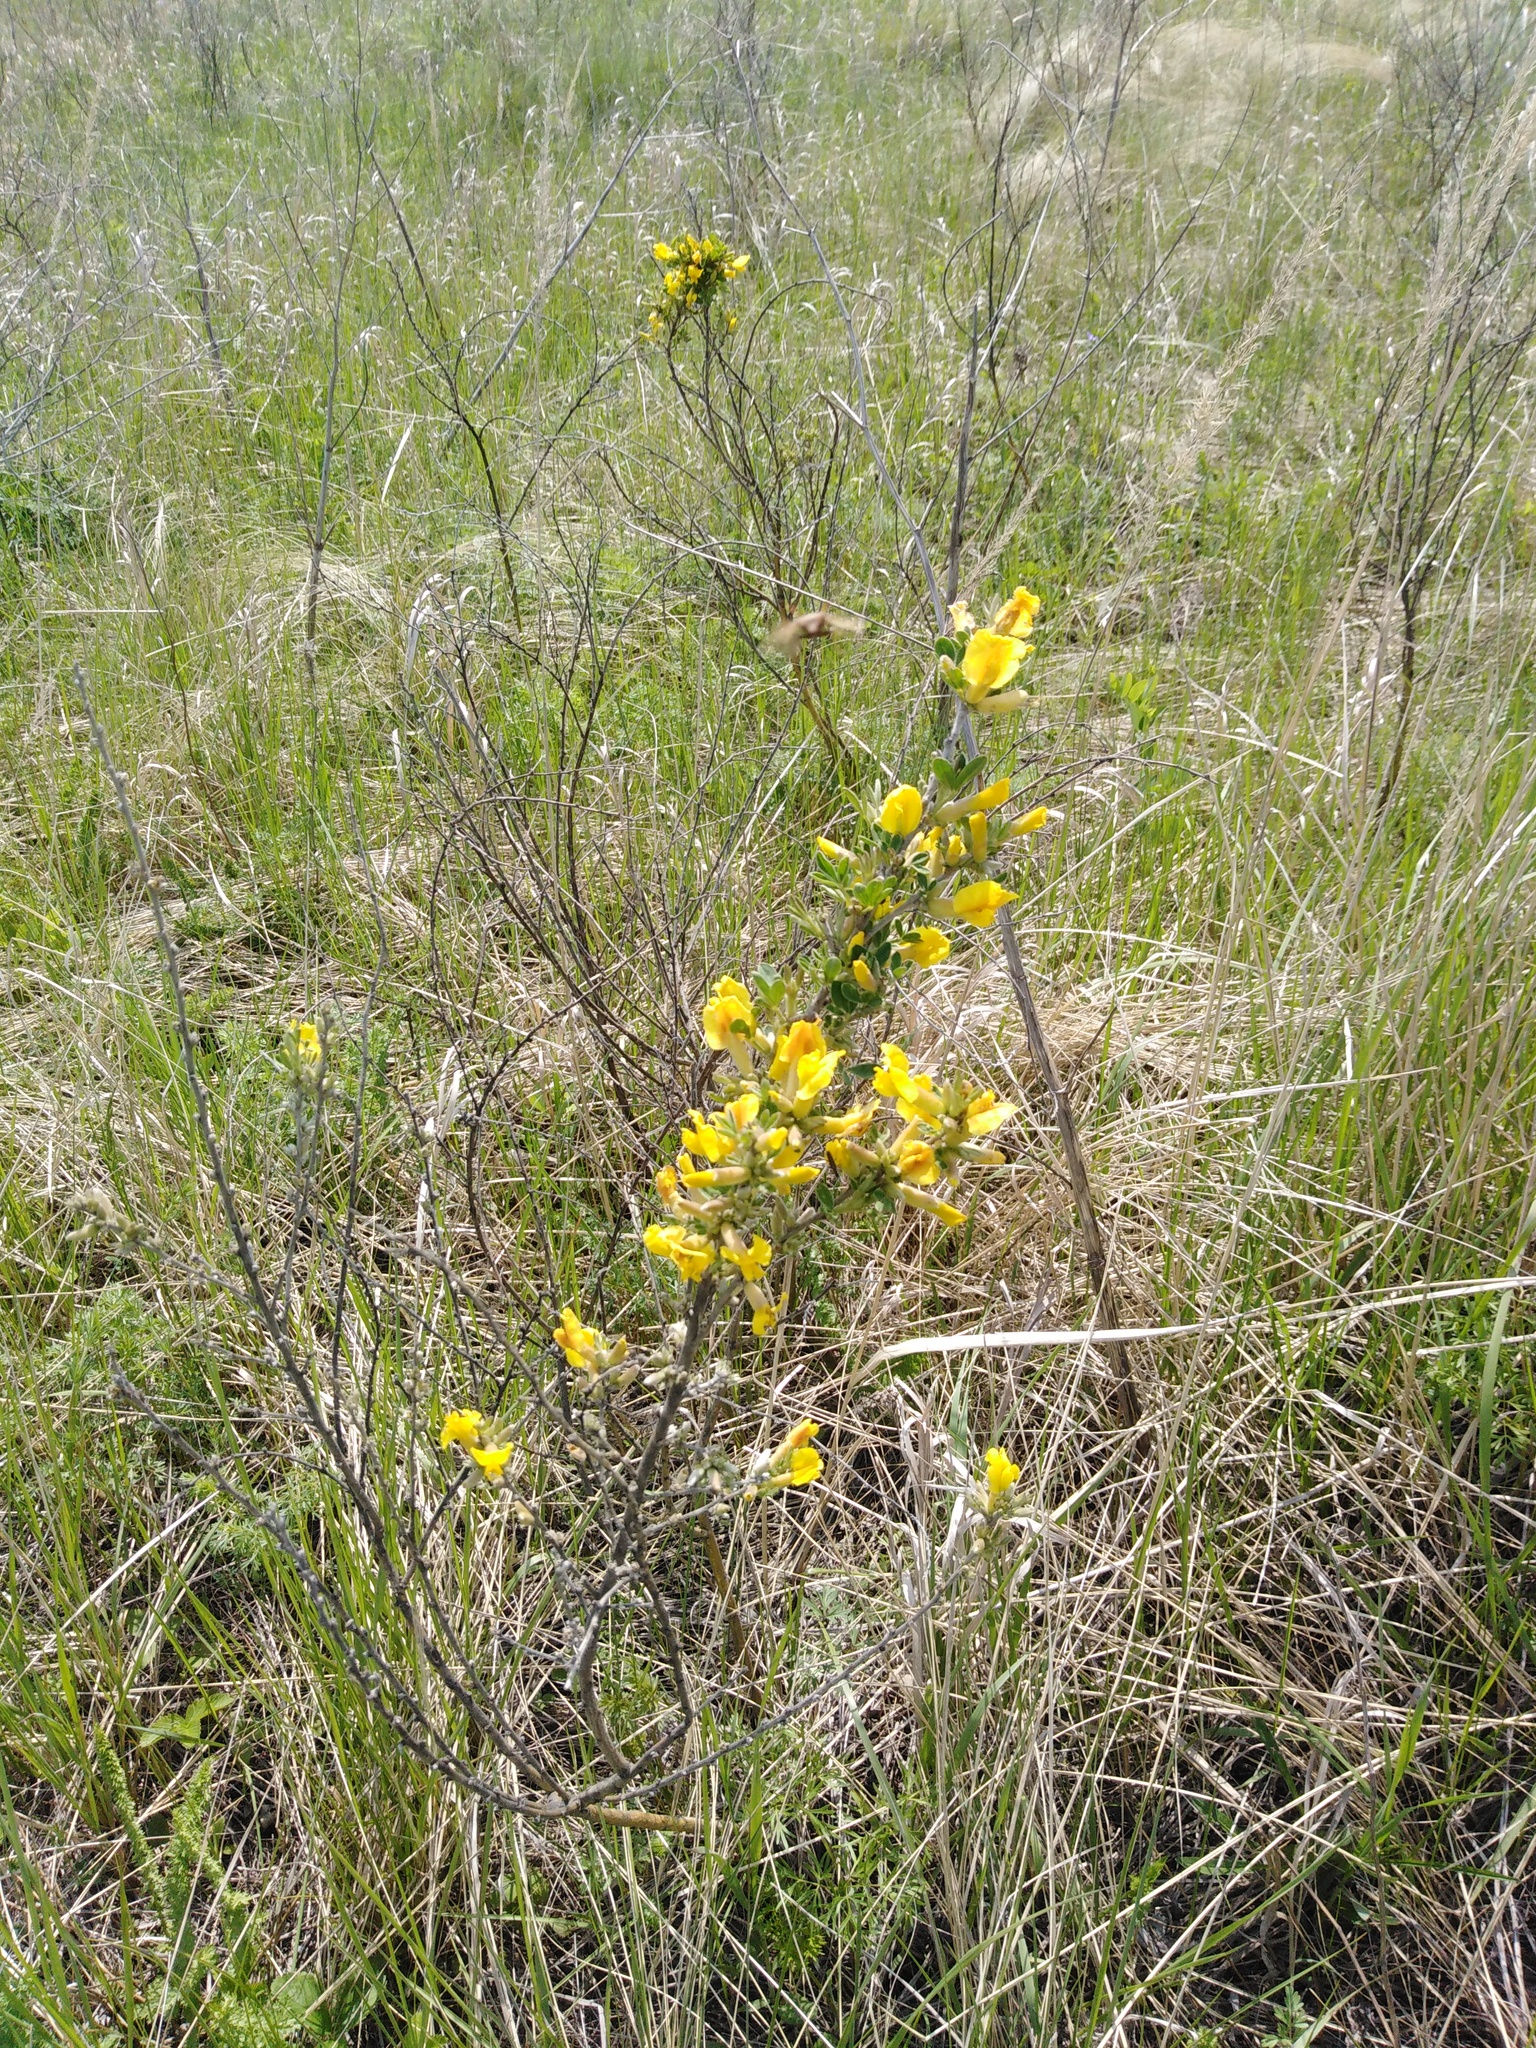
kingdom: Plantae
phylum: Tracheophyta
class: Magnoliopsida
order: Fabales
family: Fabaceae
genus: Chamaecytisus
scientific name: Chamaecytisus ruthenicus
